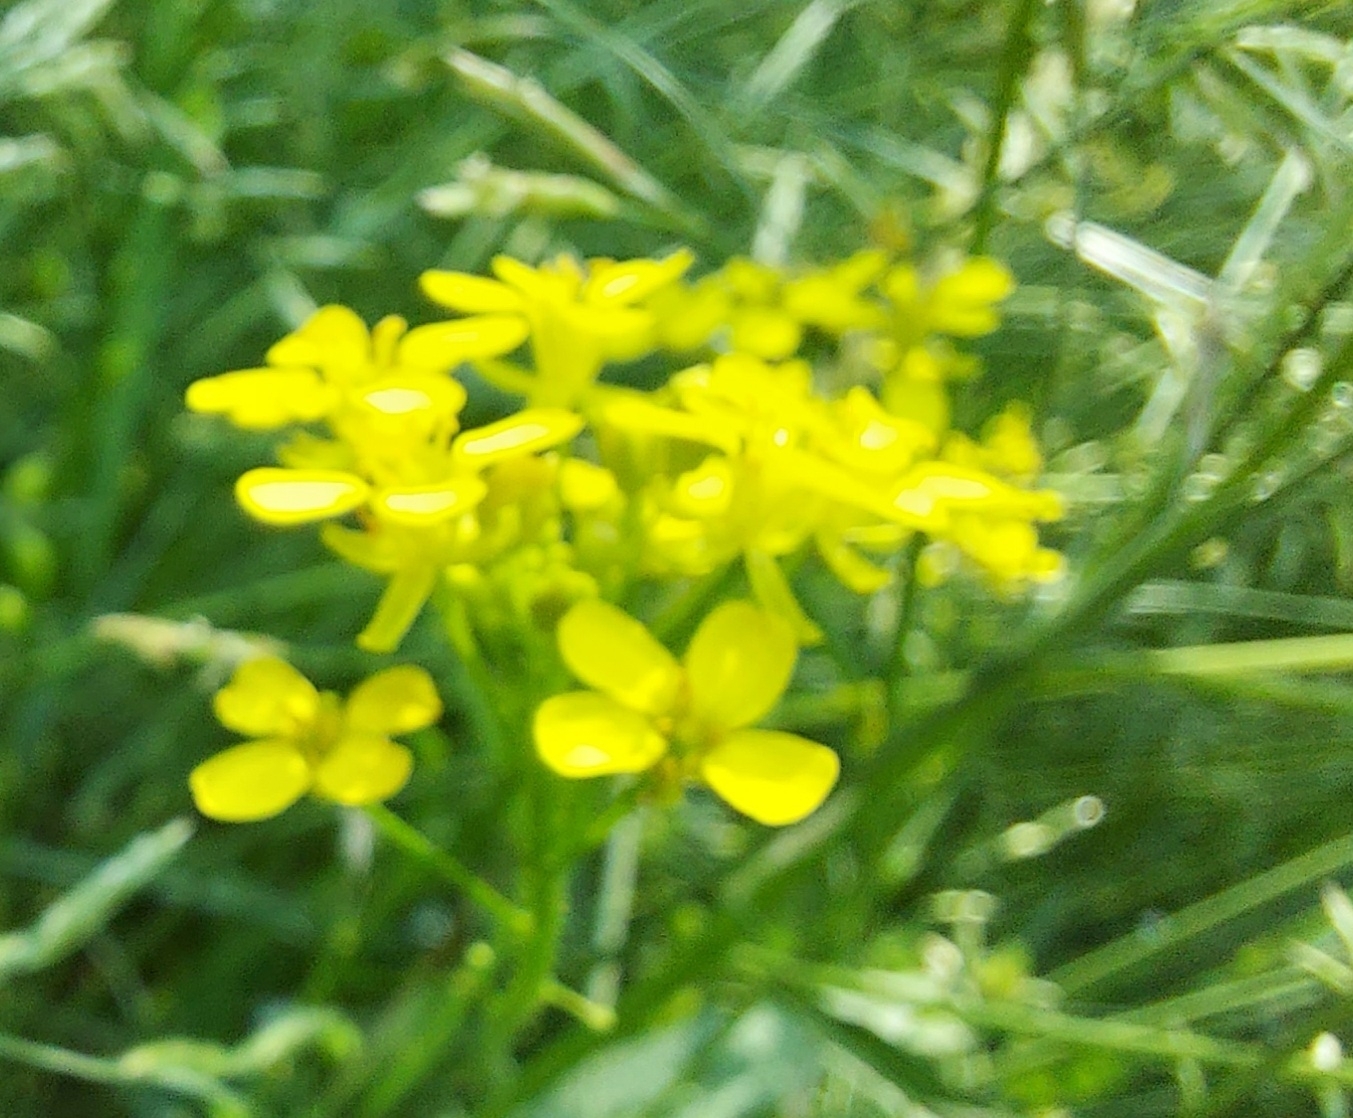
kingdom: Plantae
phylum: Tracheophyta
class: Magnoliopsida
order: Brassicales
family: Brassicaceae
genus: Bunias
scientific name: Bunias orientalis
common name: Warty-cabbage
